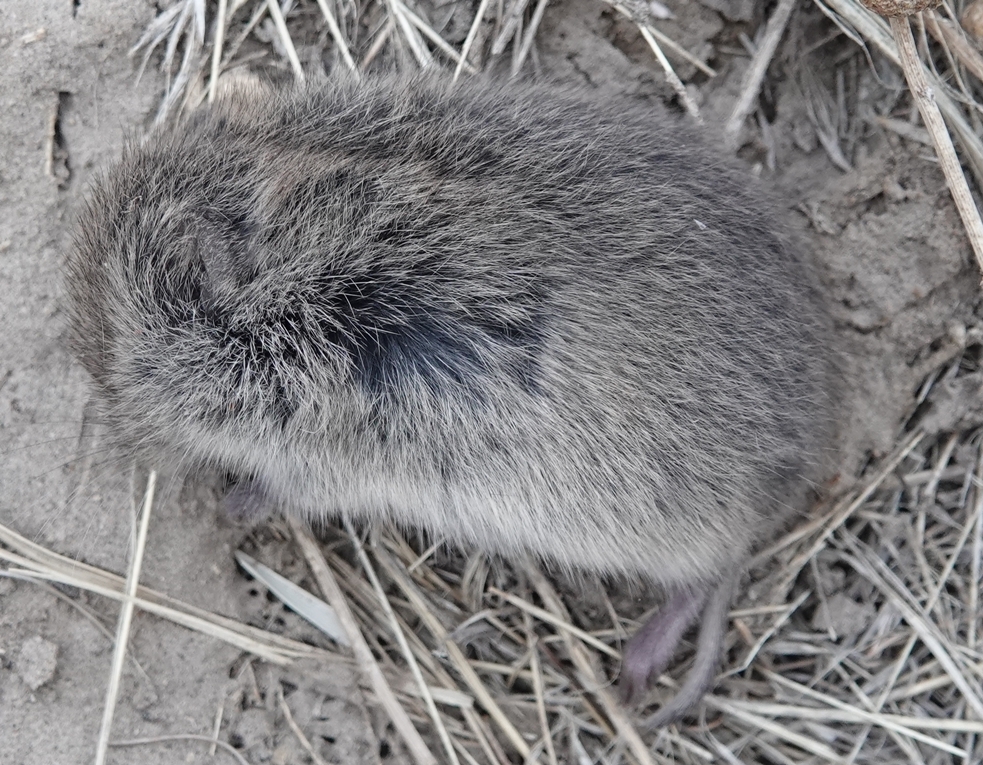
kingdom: Animalia
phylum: Chordata
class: Mammalia
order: Rodentia
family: Cricetidae
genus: Microtus
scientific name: Microtus ochrogaster
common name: Prairie vole
